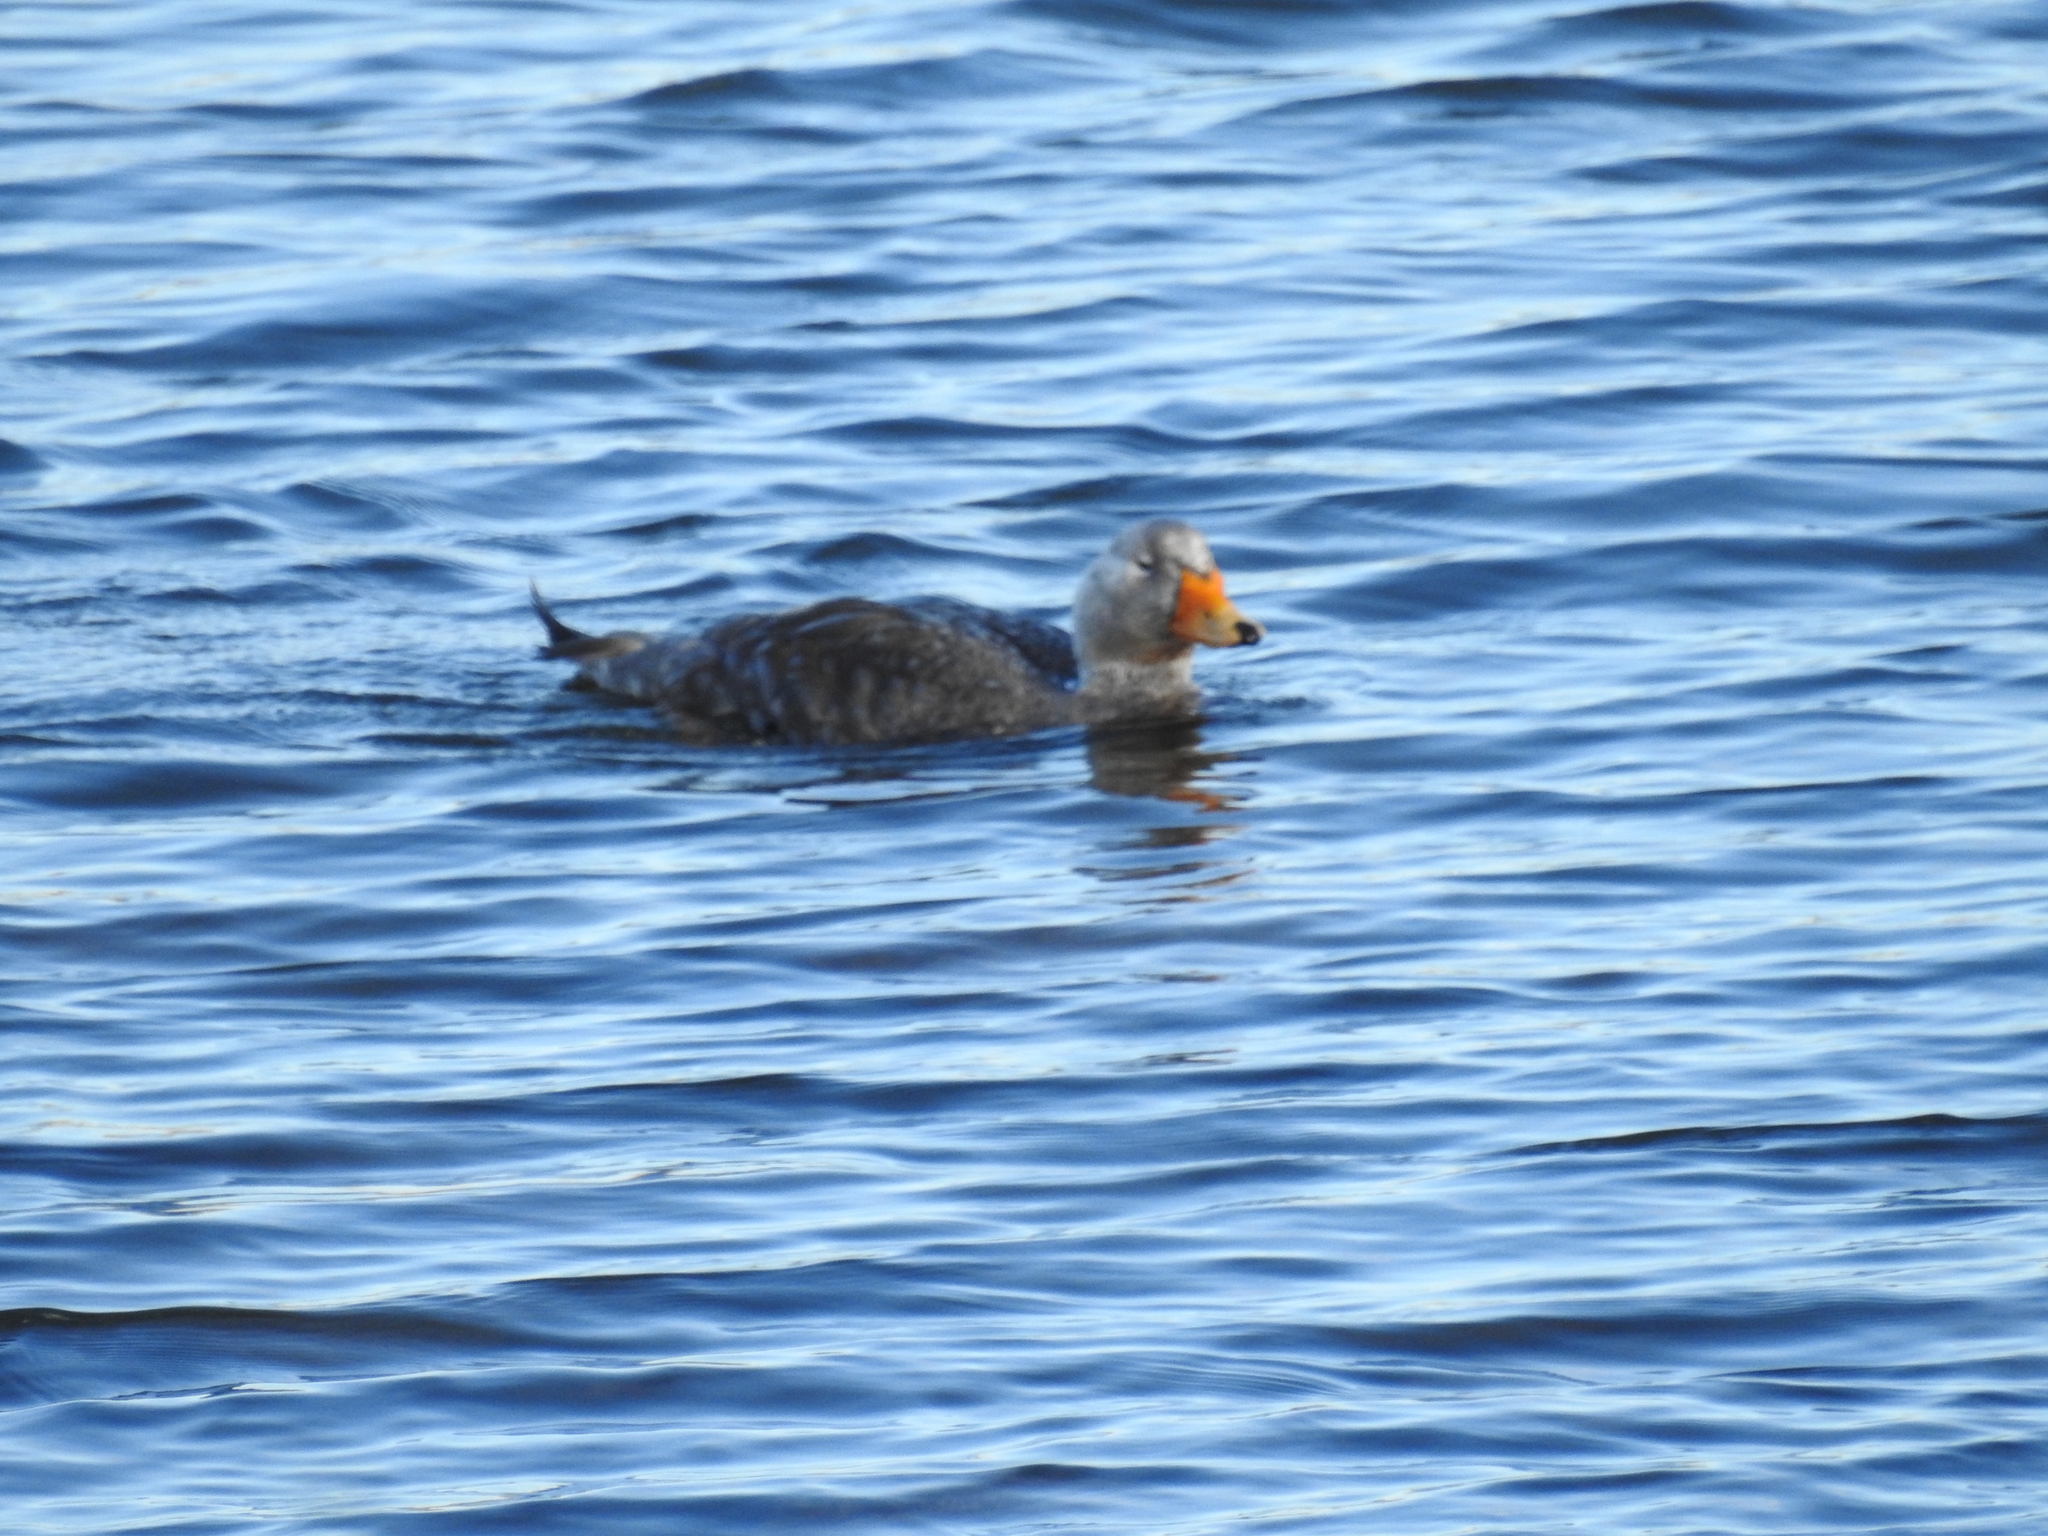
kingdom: Animalia
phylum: Chordata
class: Aves
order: Anseriformes
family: Anatidae
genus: Tachyeres
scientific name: Tachyeres patachonicus
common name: Flying steamer duck
